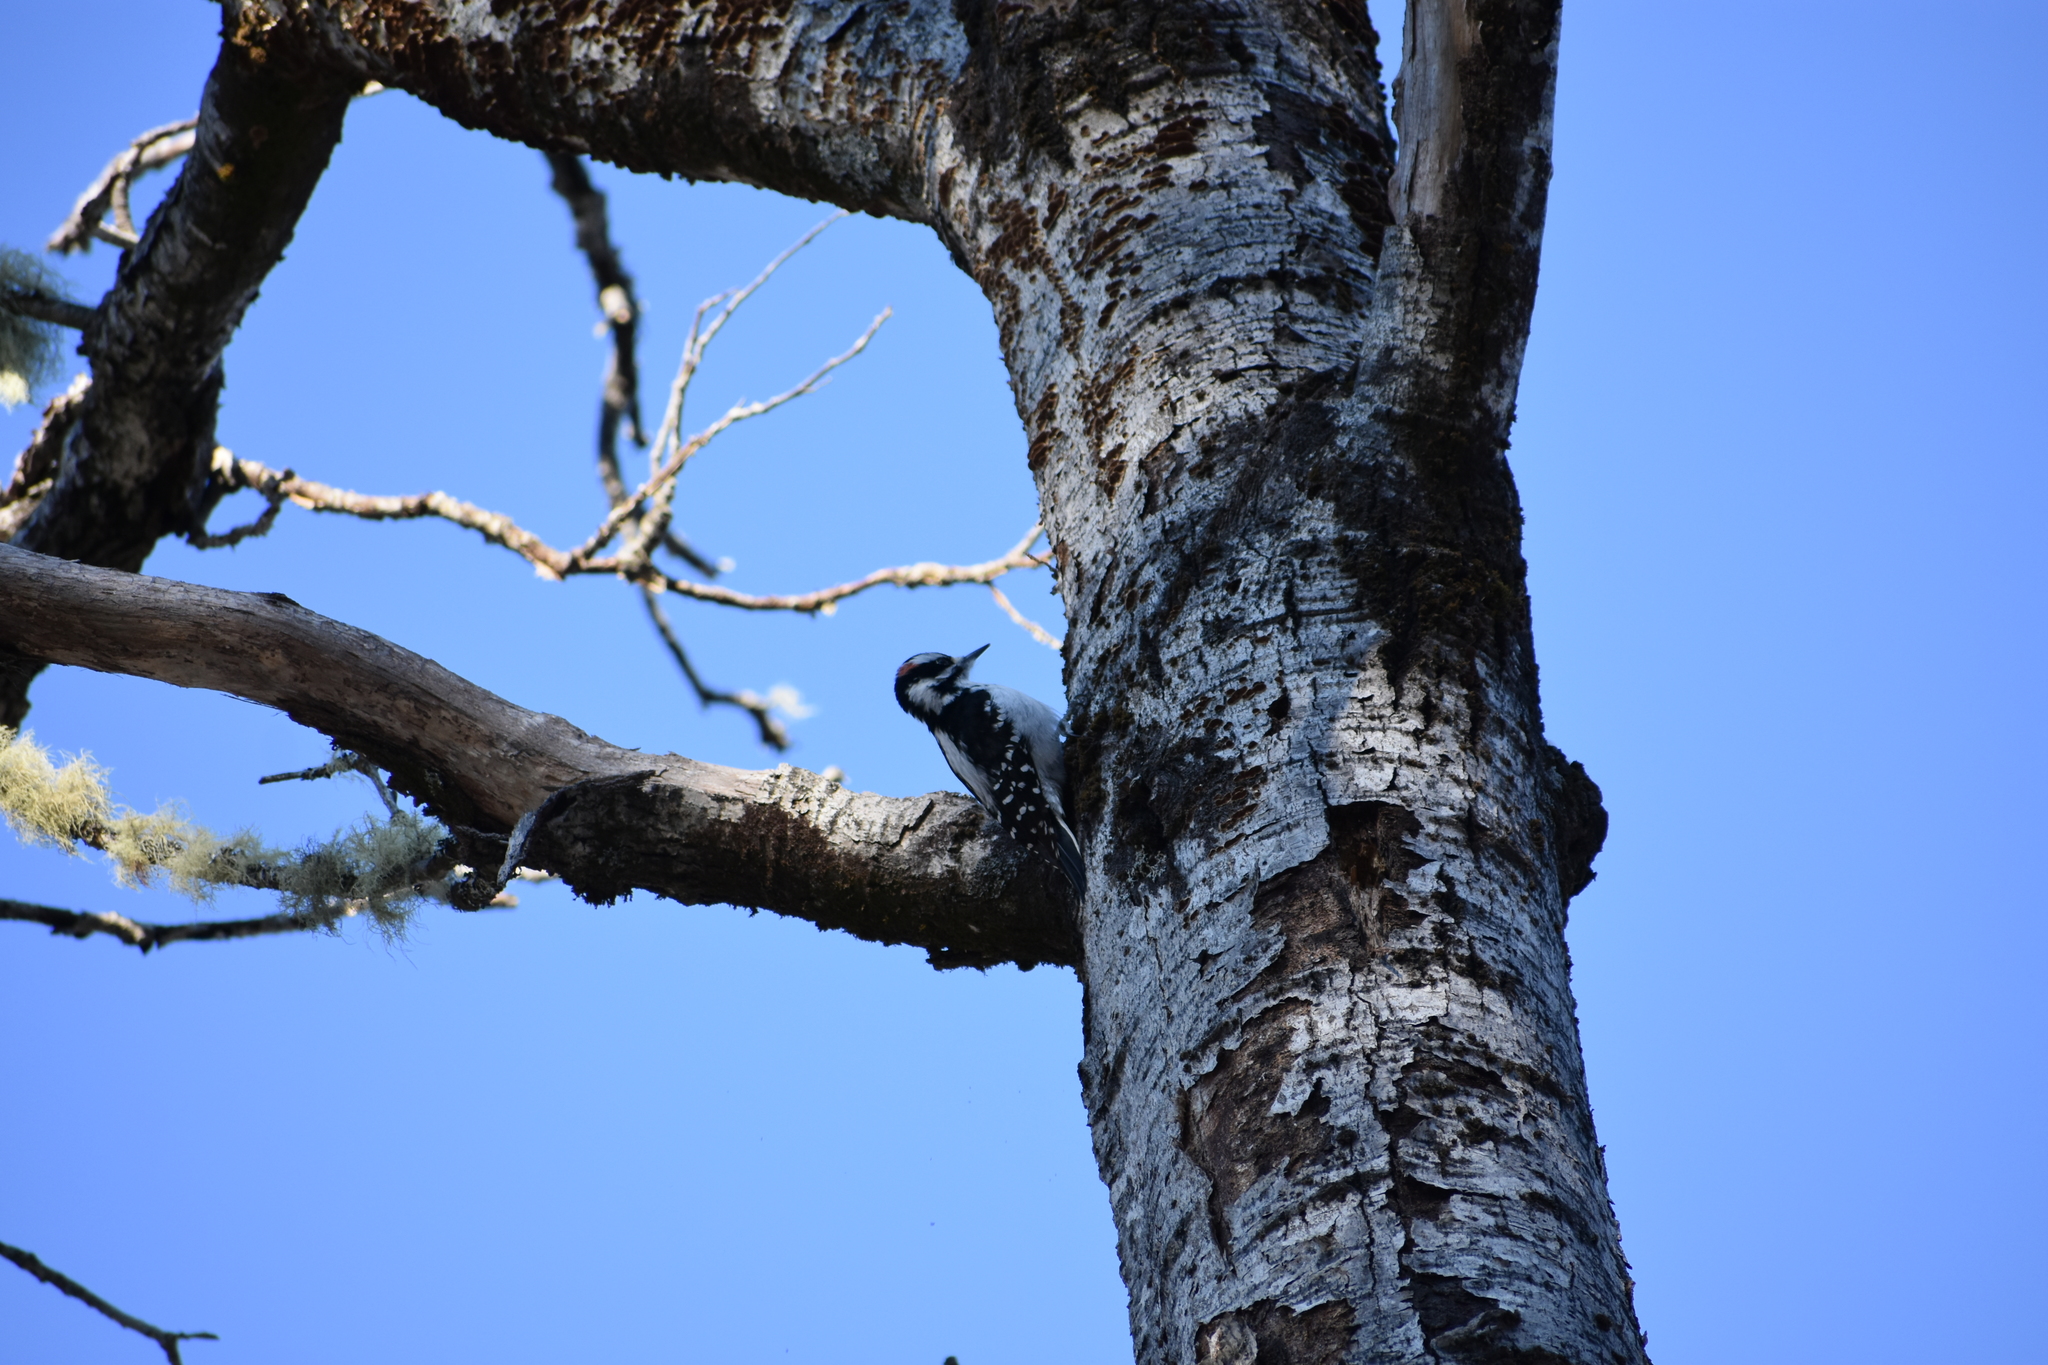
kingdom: Animalia
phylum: Chordata
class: Aves
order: Piciformes
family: Picidae
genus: Leuconotopicus
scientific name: Leuconotopicus villosus
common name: Hairy woodpecker
